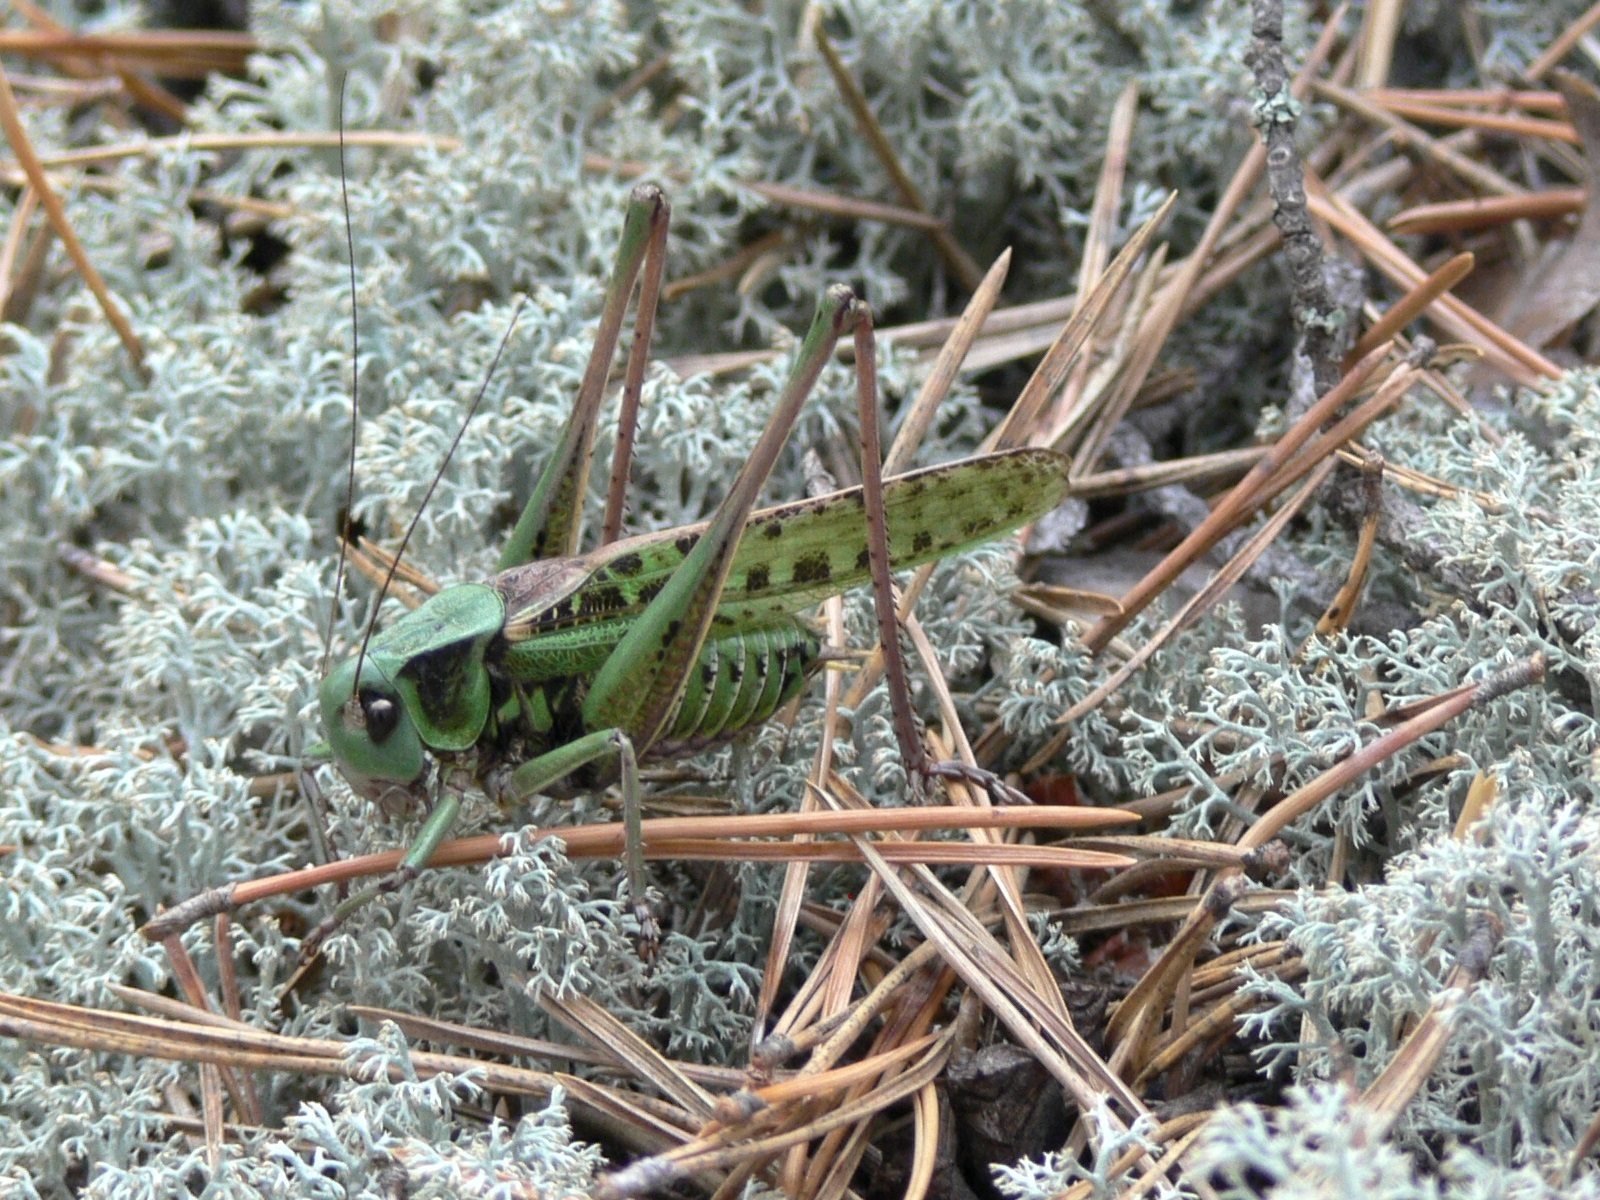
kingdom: Animalia
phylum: Arthropoda
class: Insecta
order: Orthoptera
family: Tettigoniidae
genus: Decticus
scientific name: Decticus verrucivorus
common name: Wart-biter
